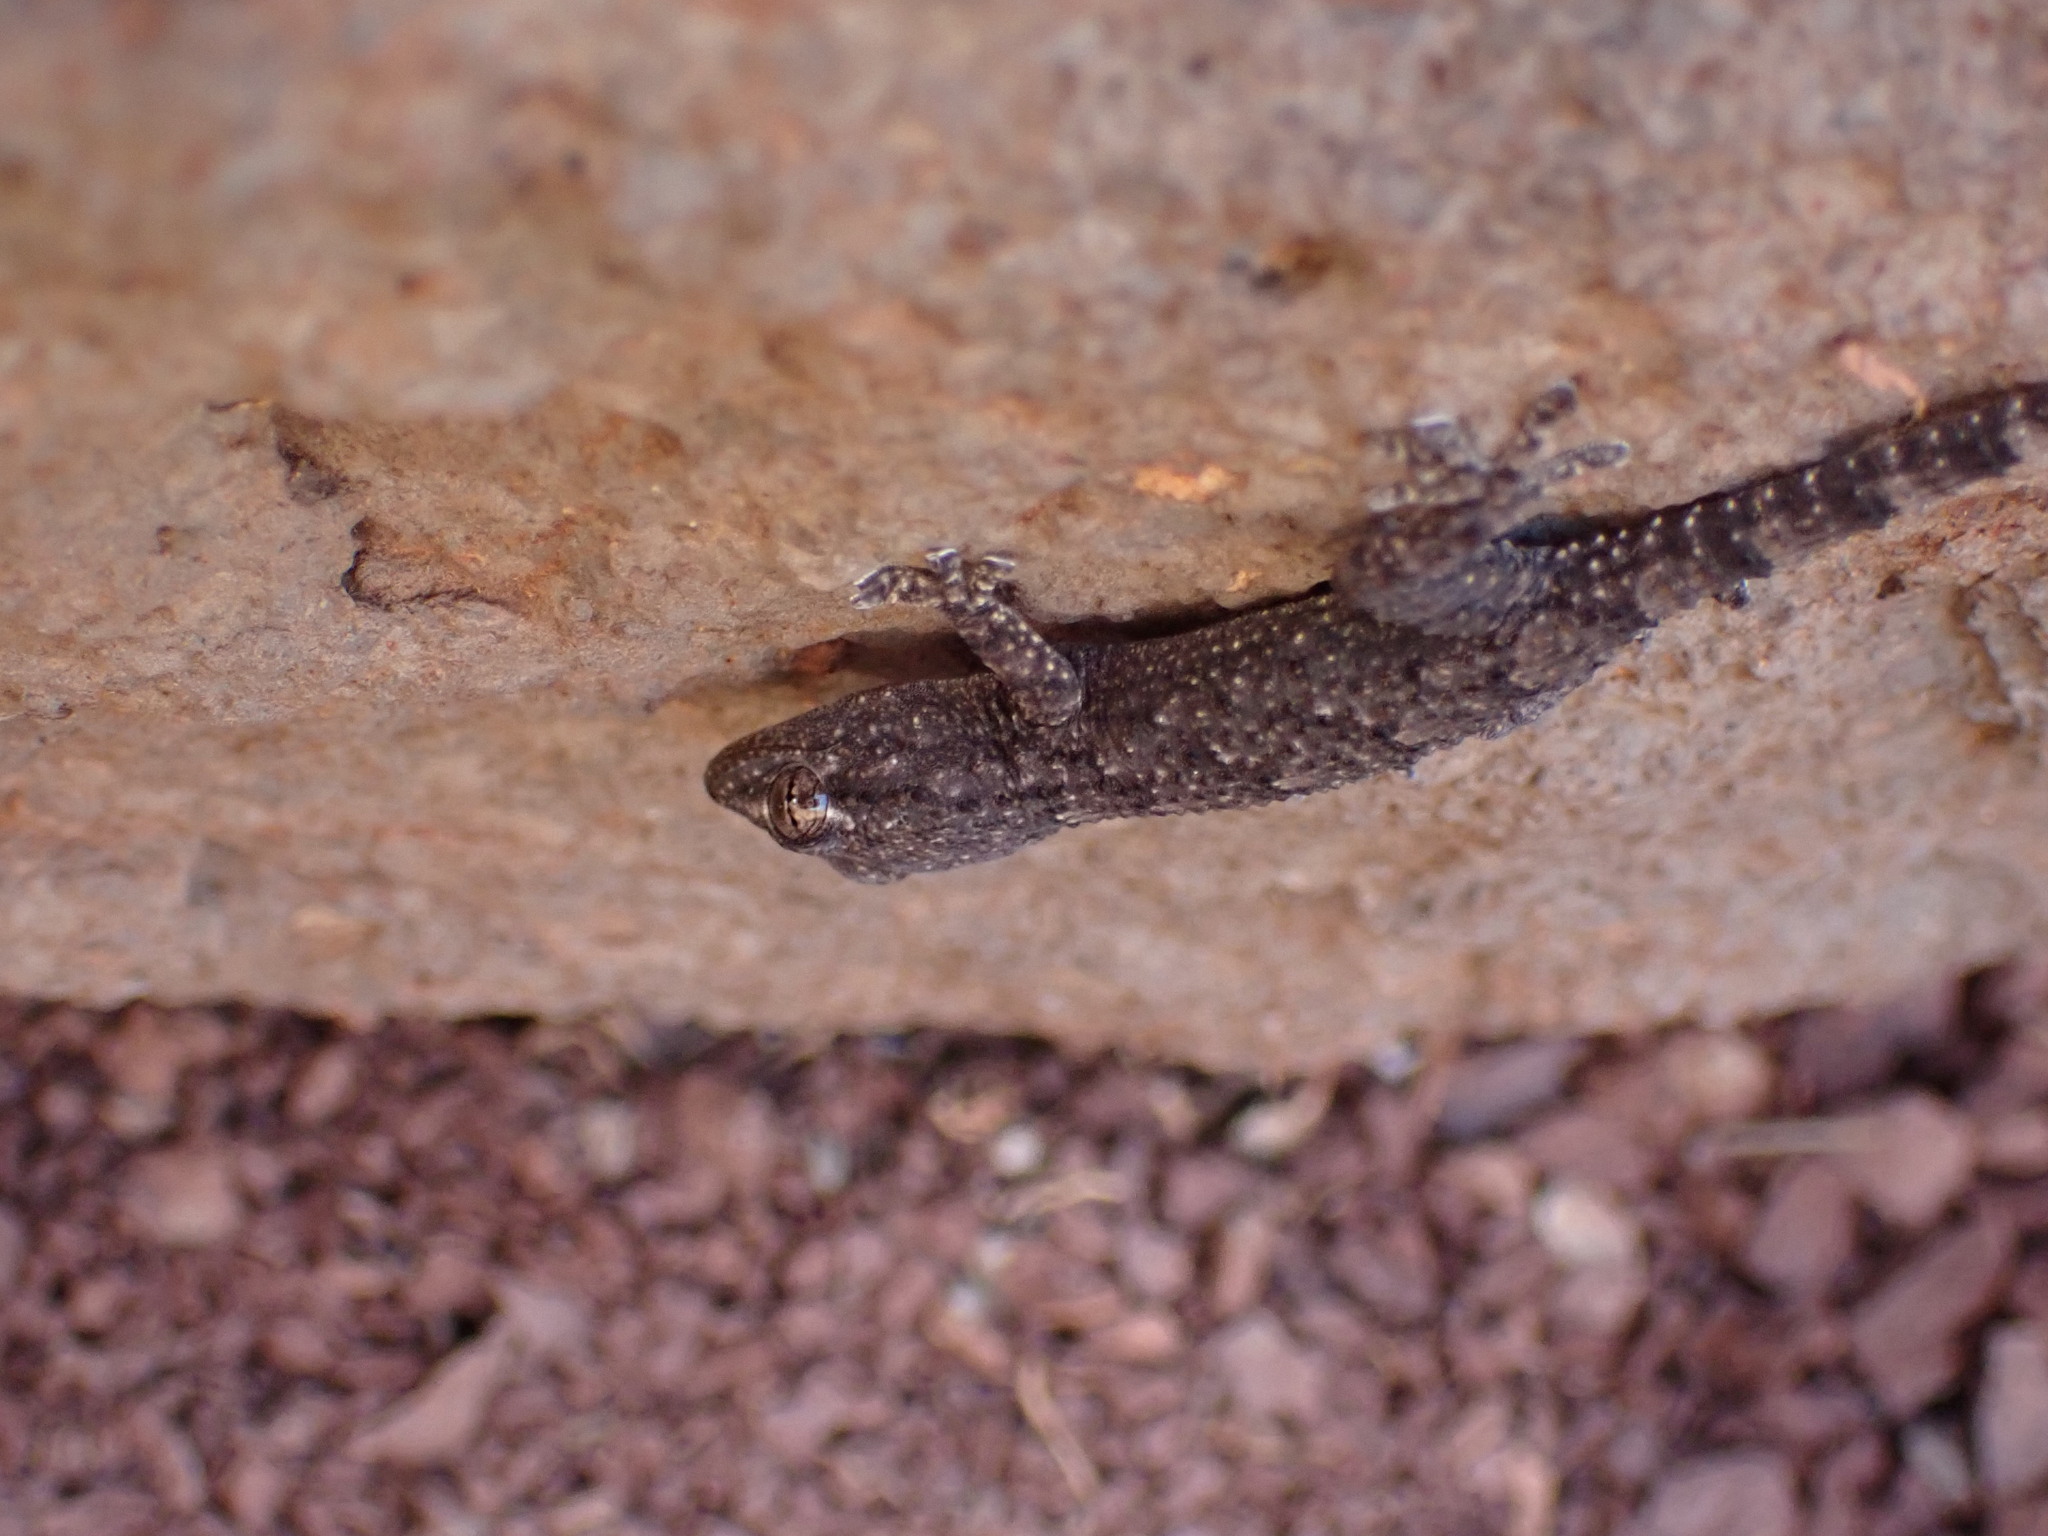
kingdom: Animalia
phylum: Chordata
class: Squamata
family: Phyllodactylidae
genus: Tarentola
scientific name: Tarentola mauritanica
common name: Moorish gecko
